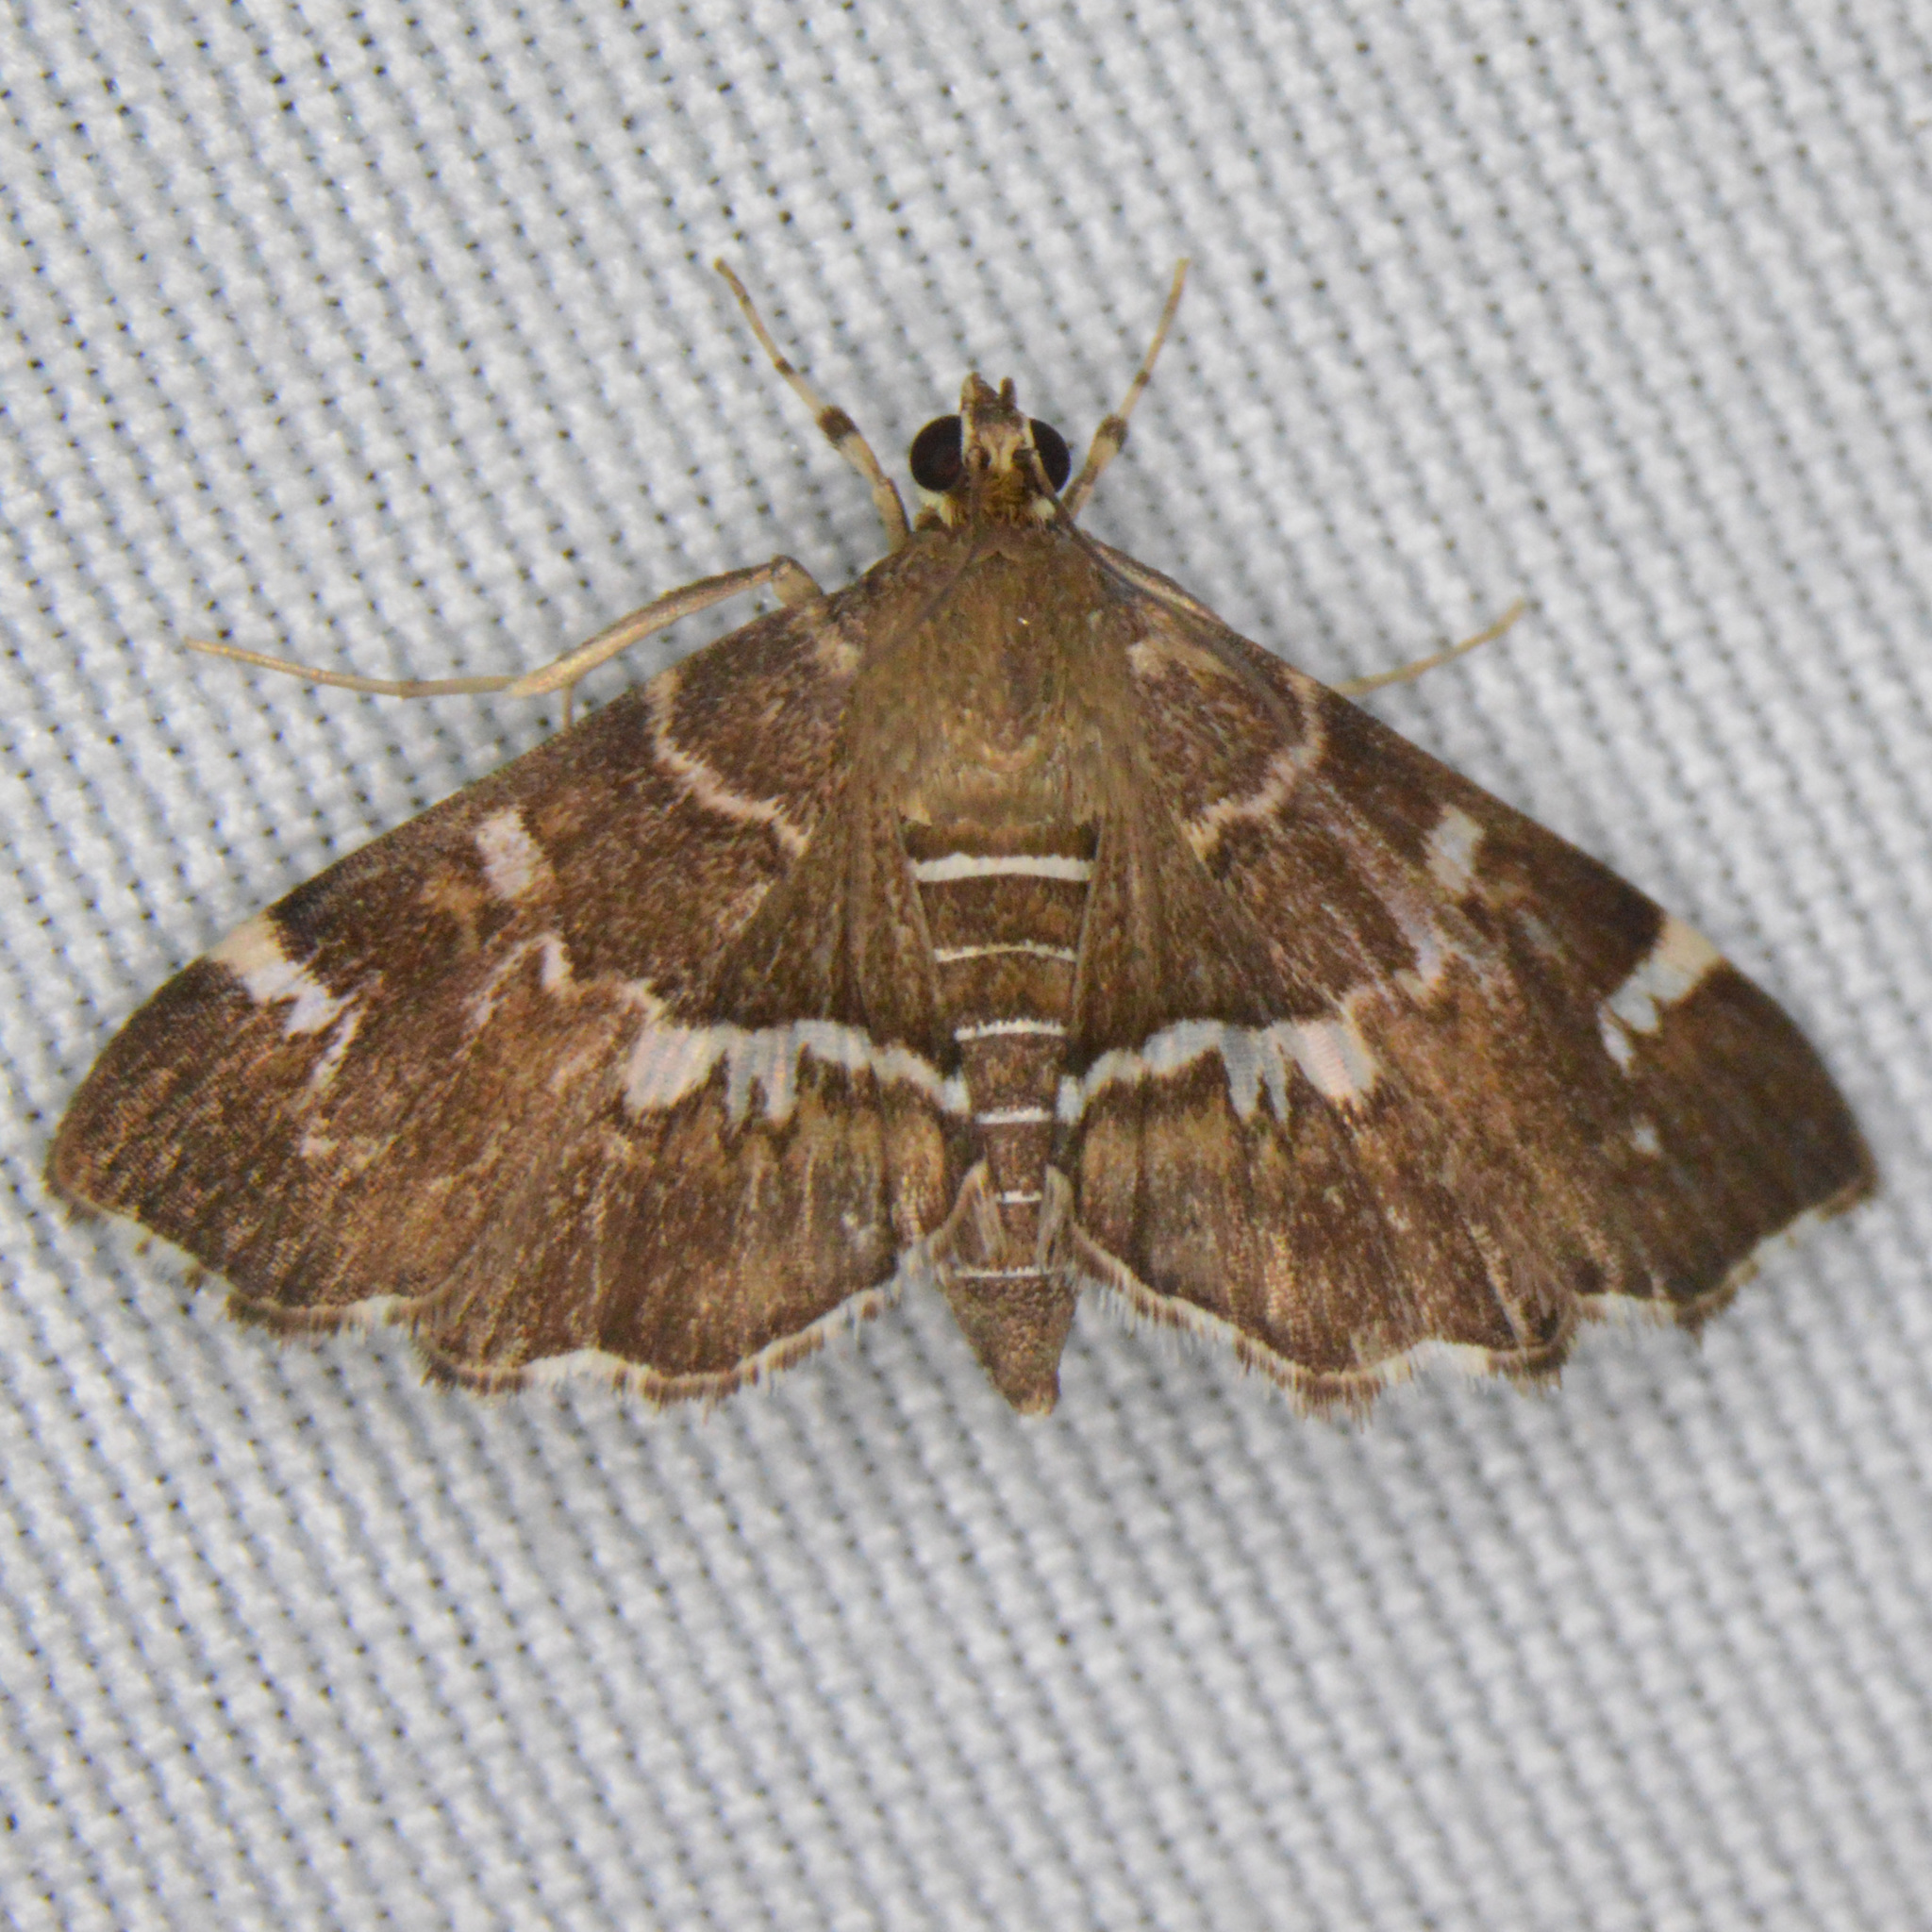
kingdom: Animalia
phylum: Arthropoda
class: Insecta
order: Lepidoptera
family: Crambidae
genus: Hymenia
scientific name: Hymenia perspectalis
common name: Spotted beet webworm
